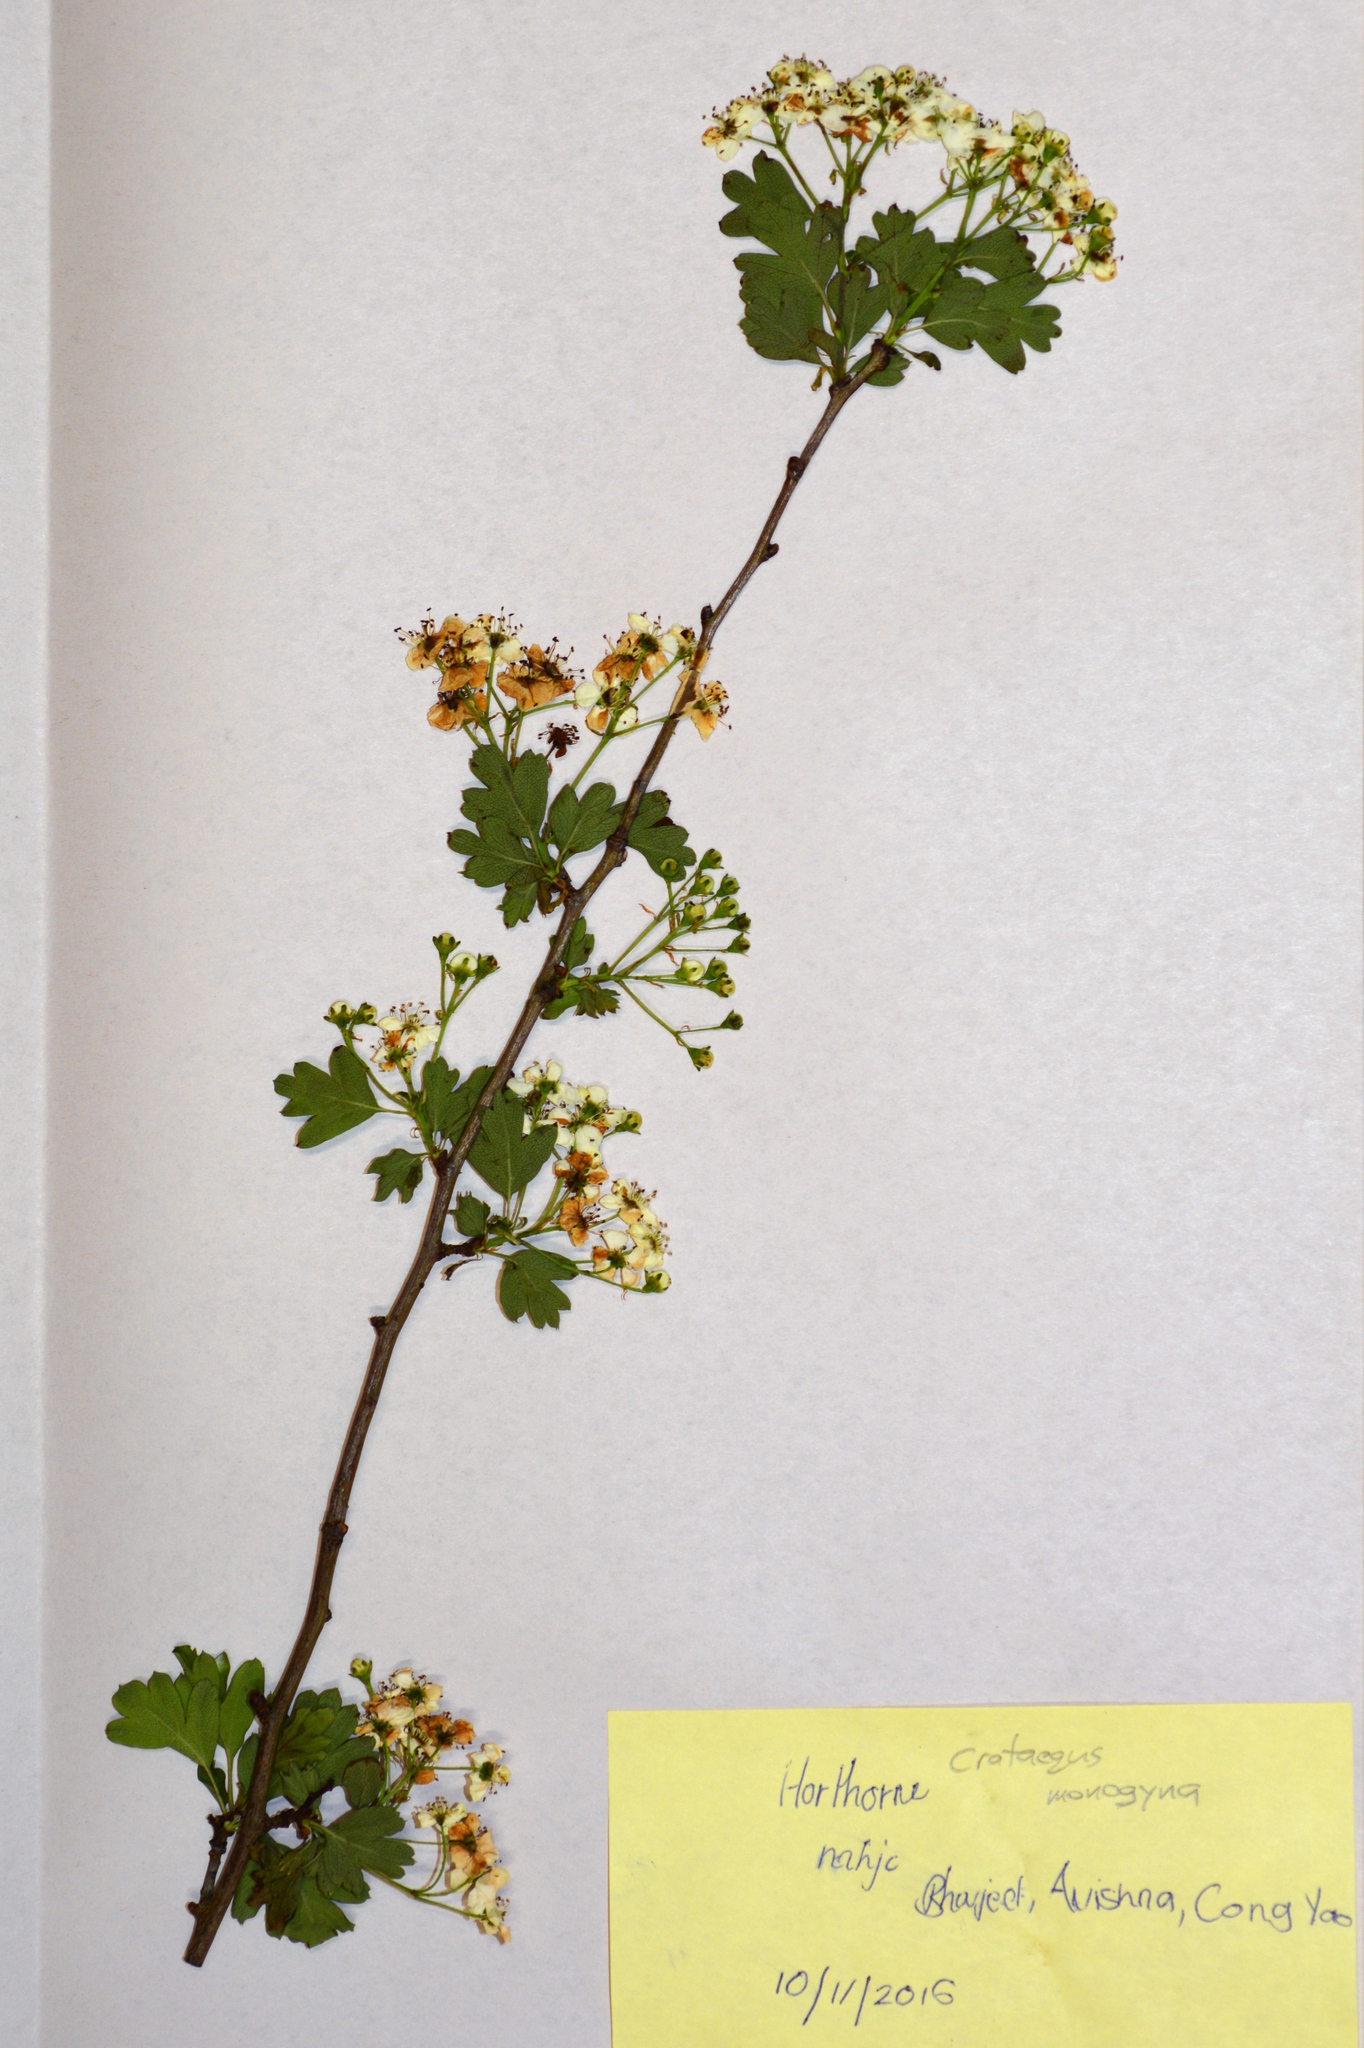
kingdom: Plantae
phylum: Tracheophyta
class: Magnoliopsida
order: Rosales
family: Rosaceae
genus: Crataegus
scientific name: Crataegus monogyna
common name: Hawthorn
